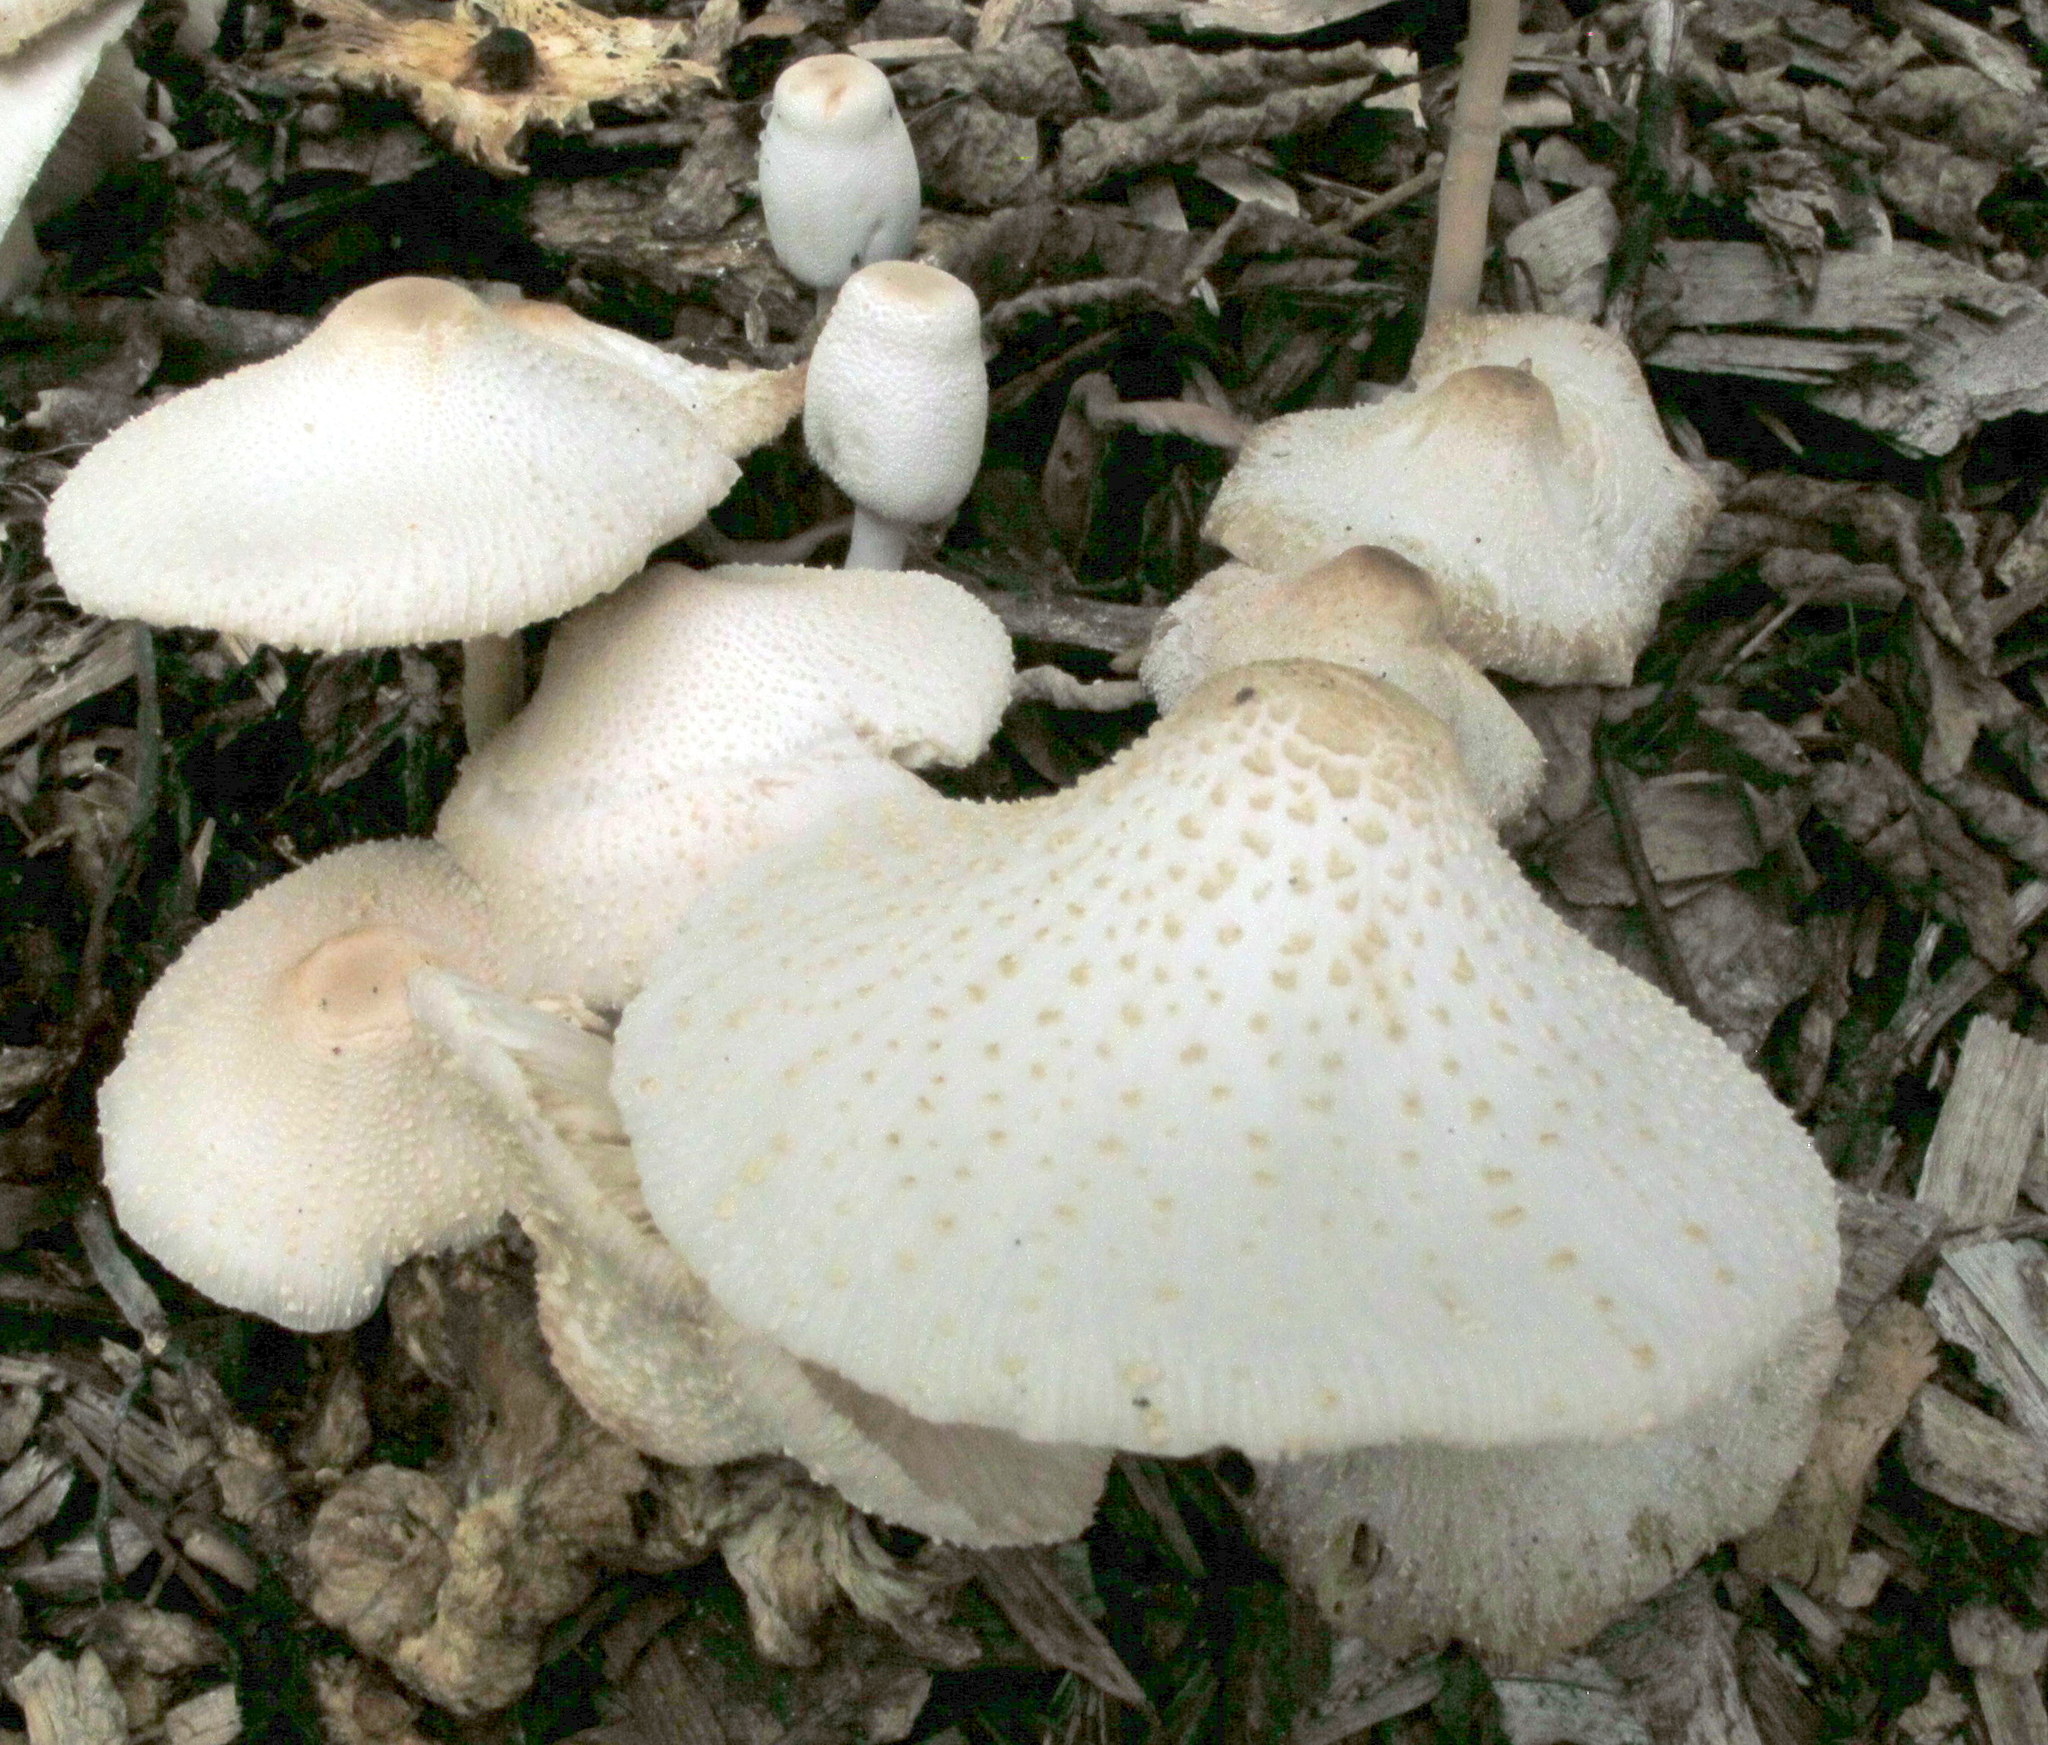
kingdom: Fungi
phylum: Basidiomycota
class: Agaricomycetes
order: Agaricales
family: Agaricaceae
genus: Leucocoprinus
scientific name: Leucocoprinus cepistipes
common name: Onion-stalk parasol
